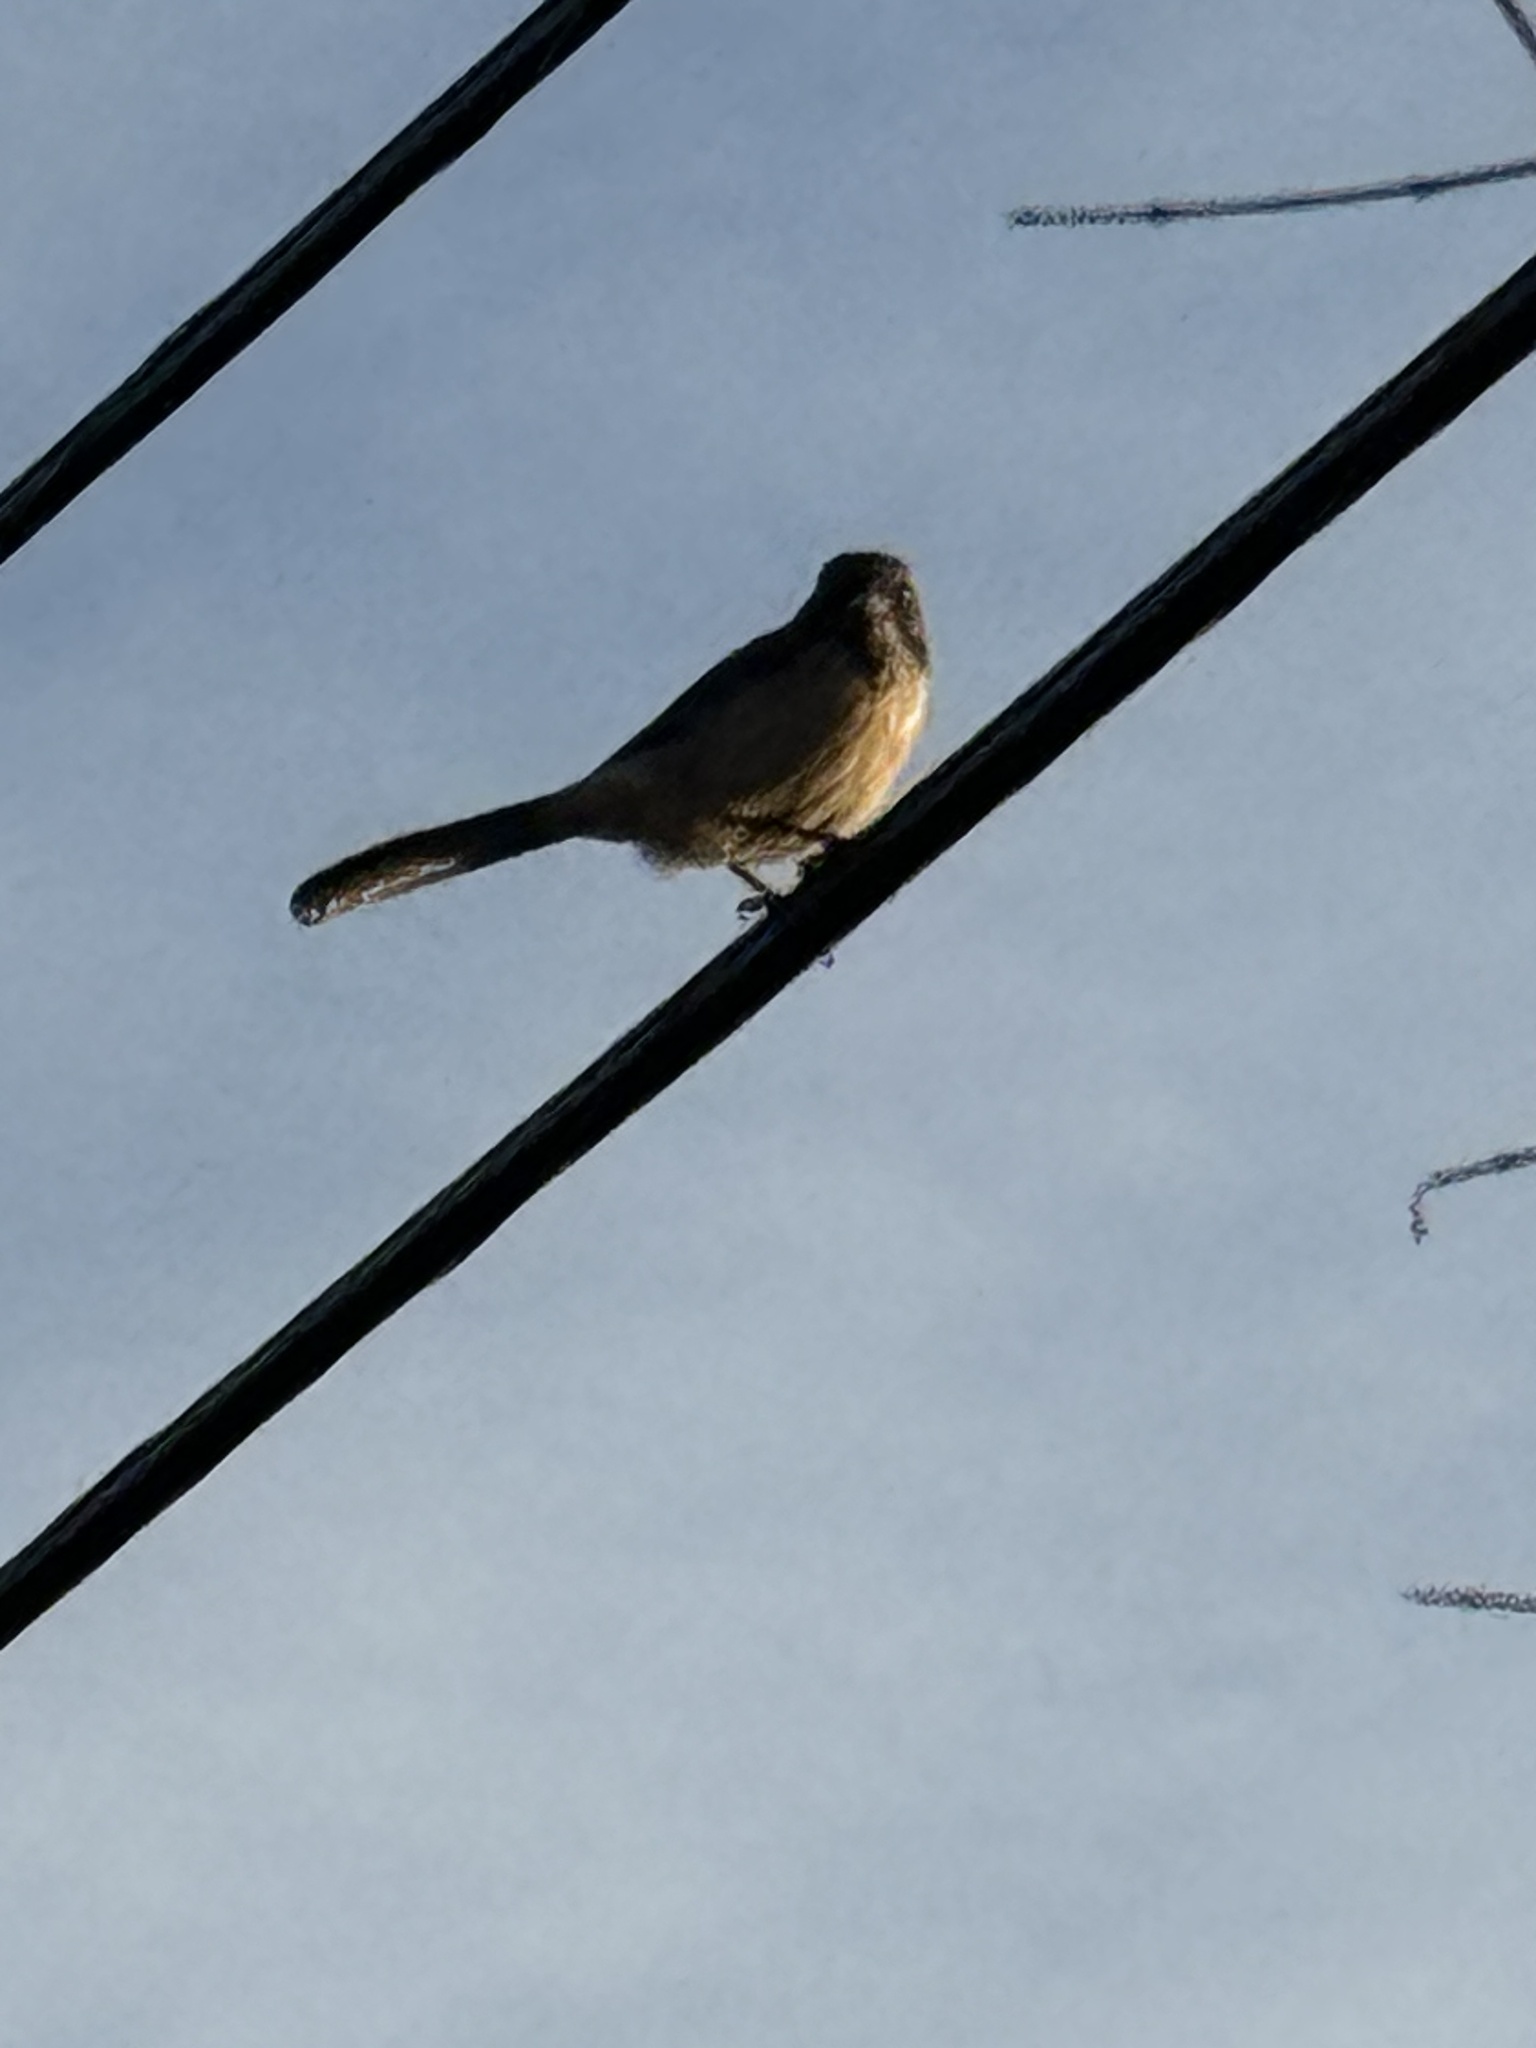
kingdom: Animalia
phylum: Chordata
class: Aves
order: Passeriformes
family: Corvidae
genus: Aphelocoma
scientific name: Aphelocoma californica
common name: California scrub-jay
